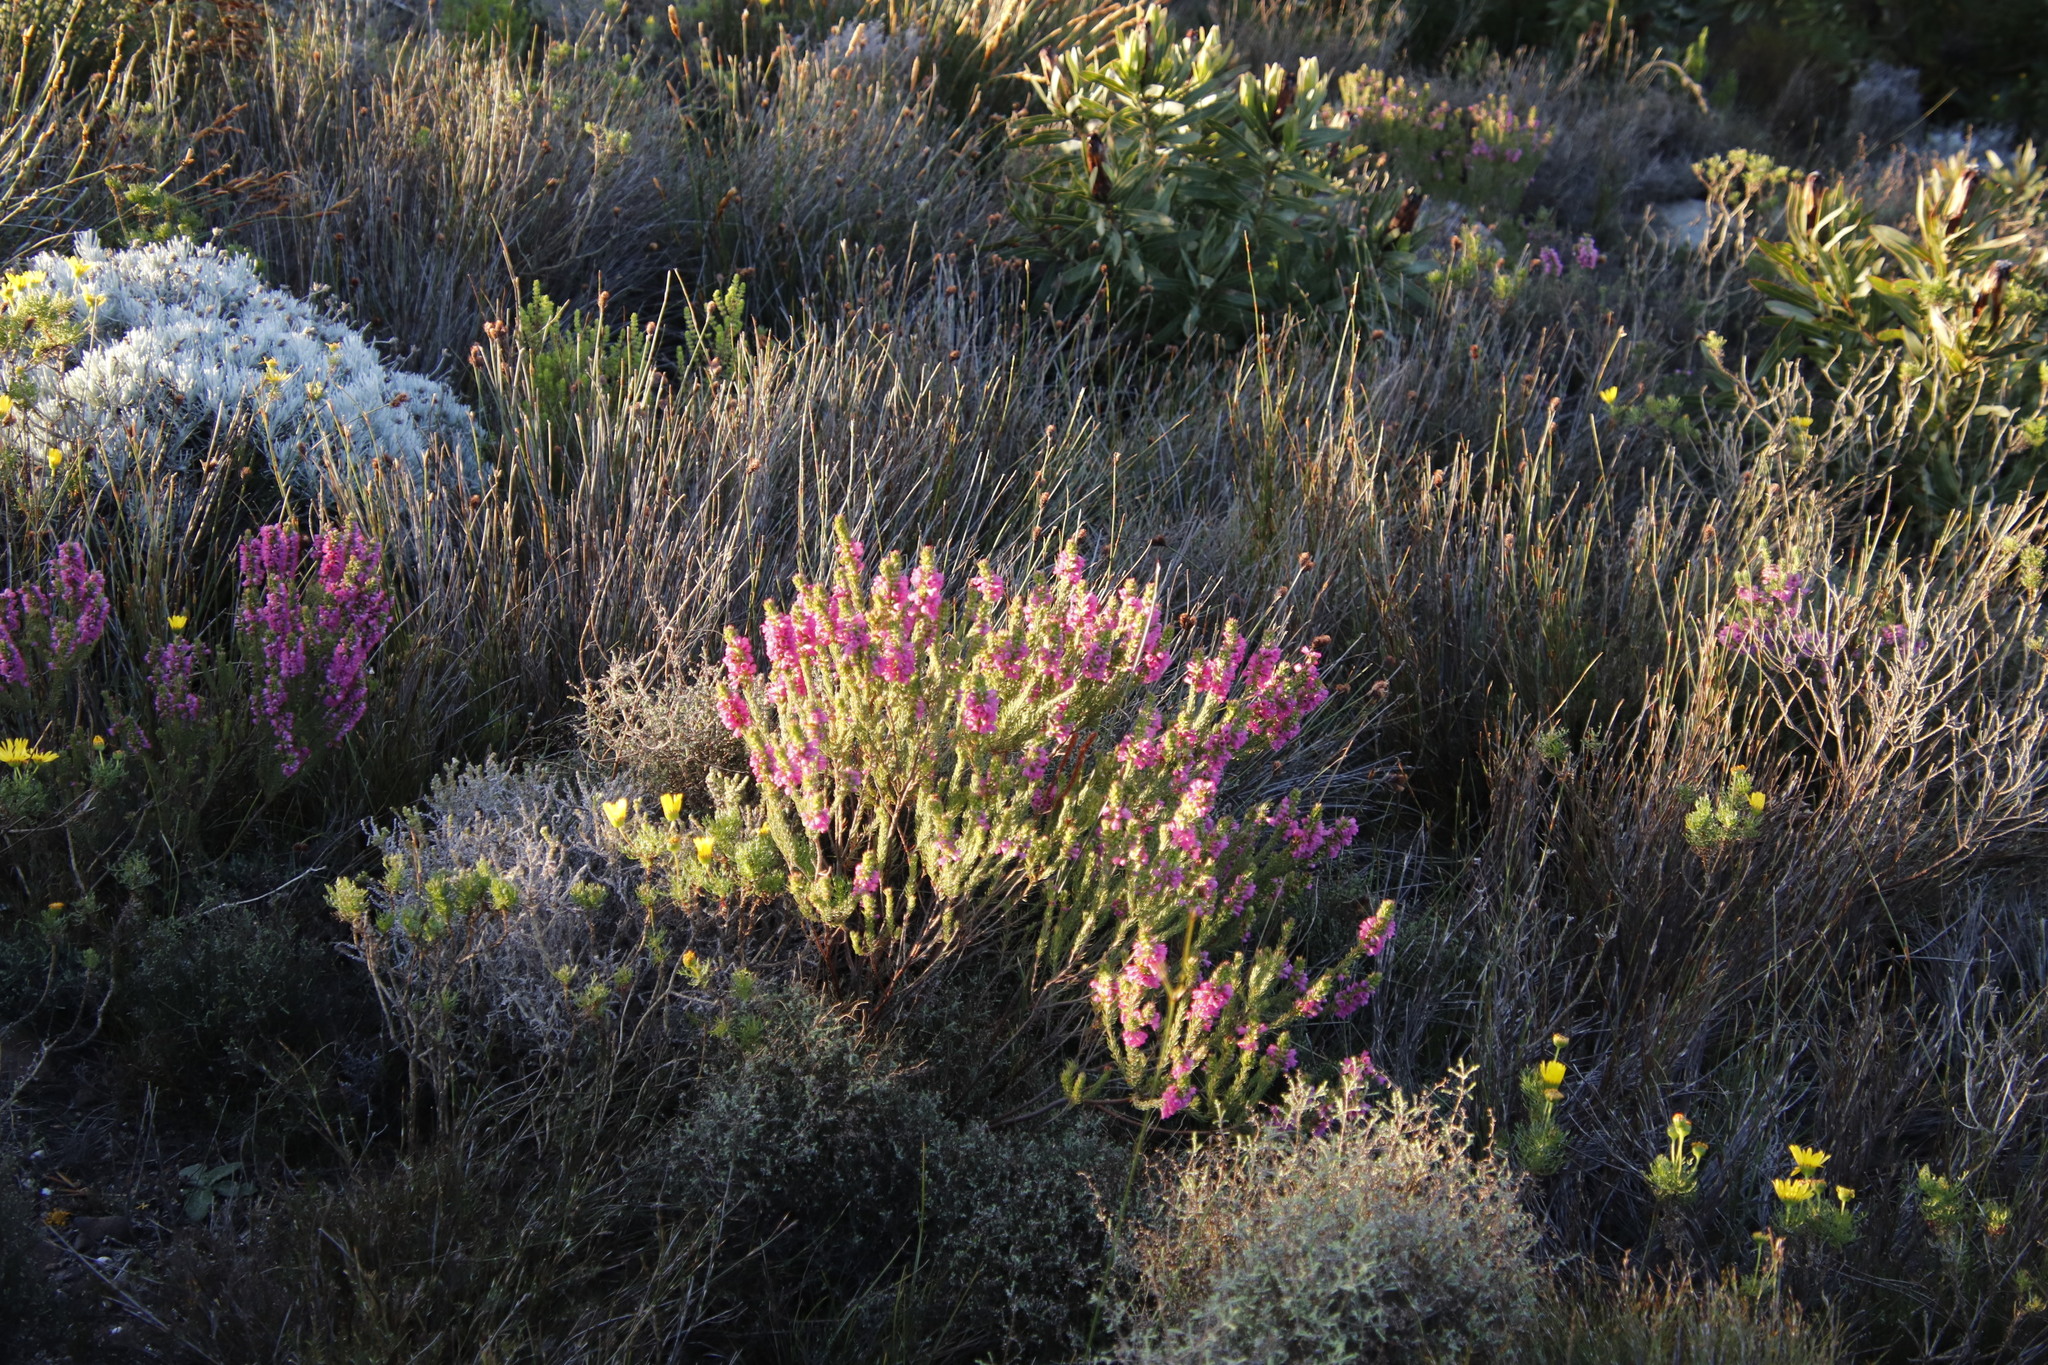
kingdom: Plantae
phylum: Tracheophyta
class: Magnoliopsida
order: Ericales
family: Ericaceae
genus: Erica
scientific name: Erica abietina
